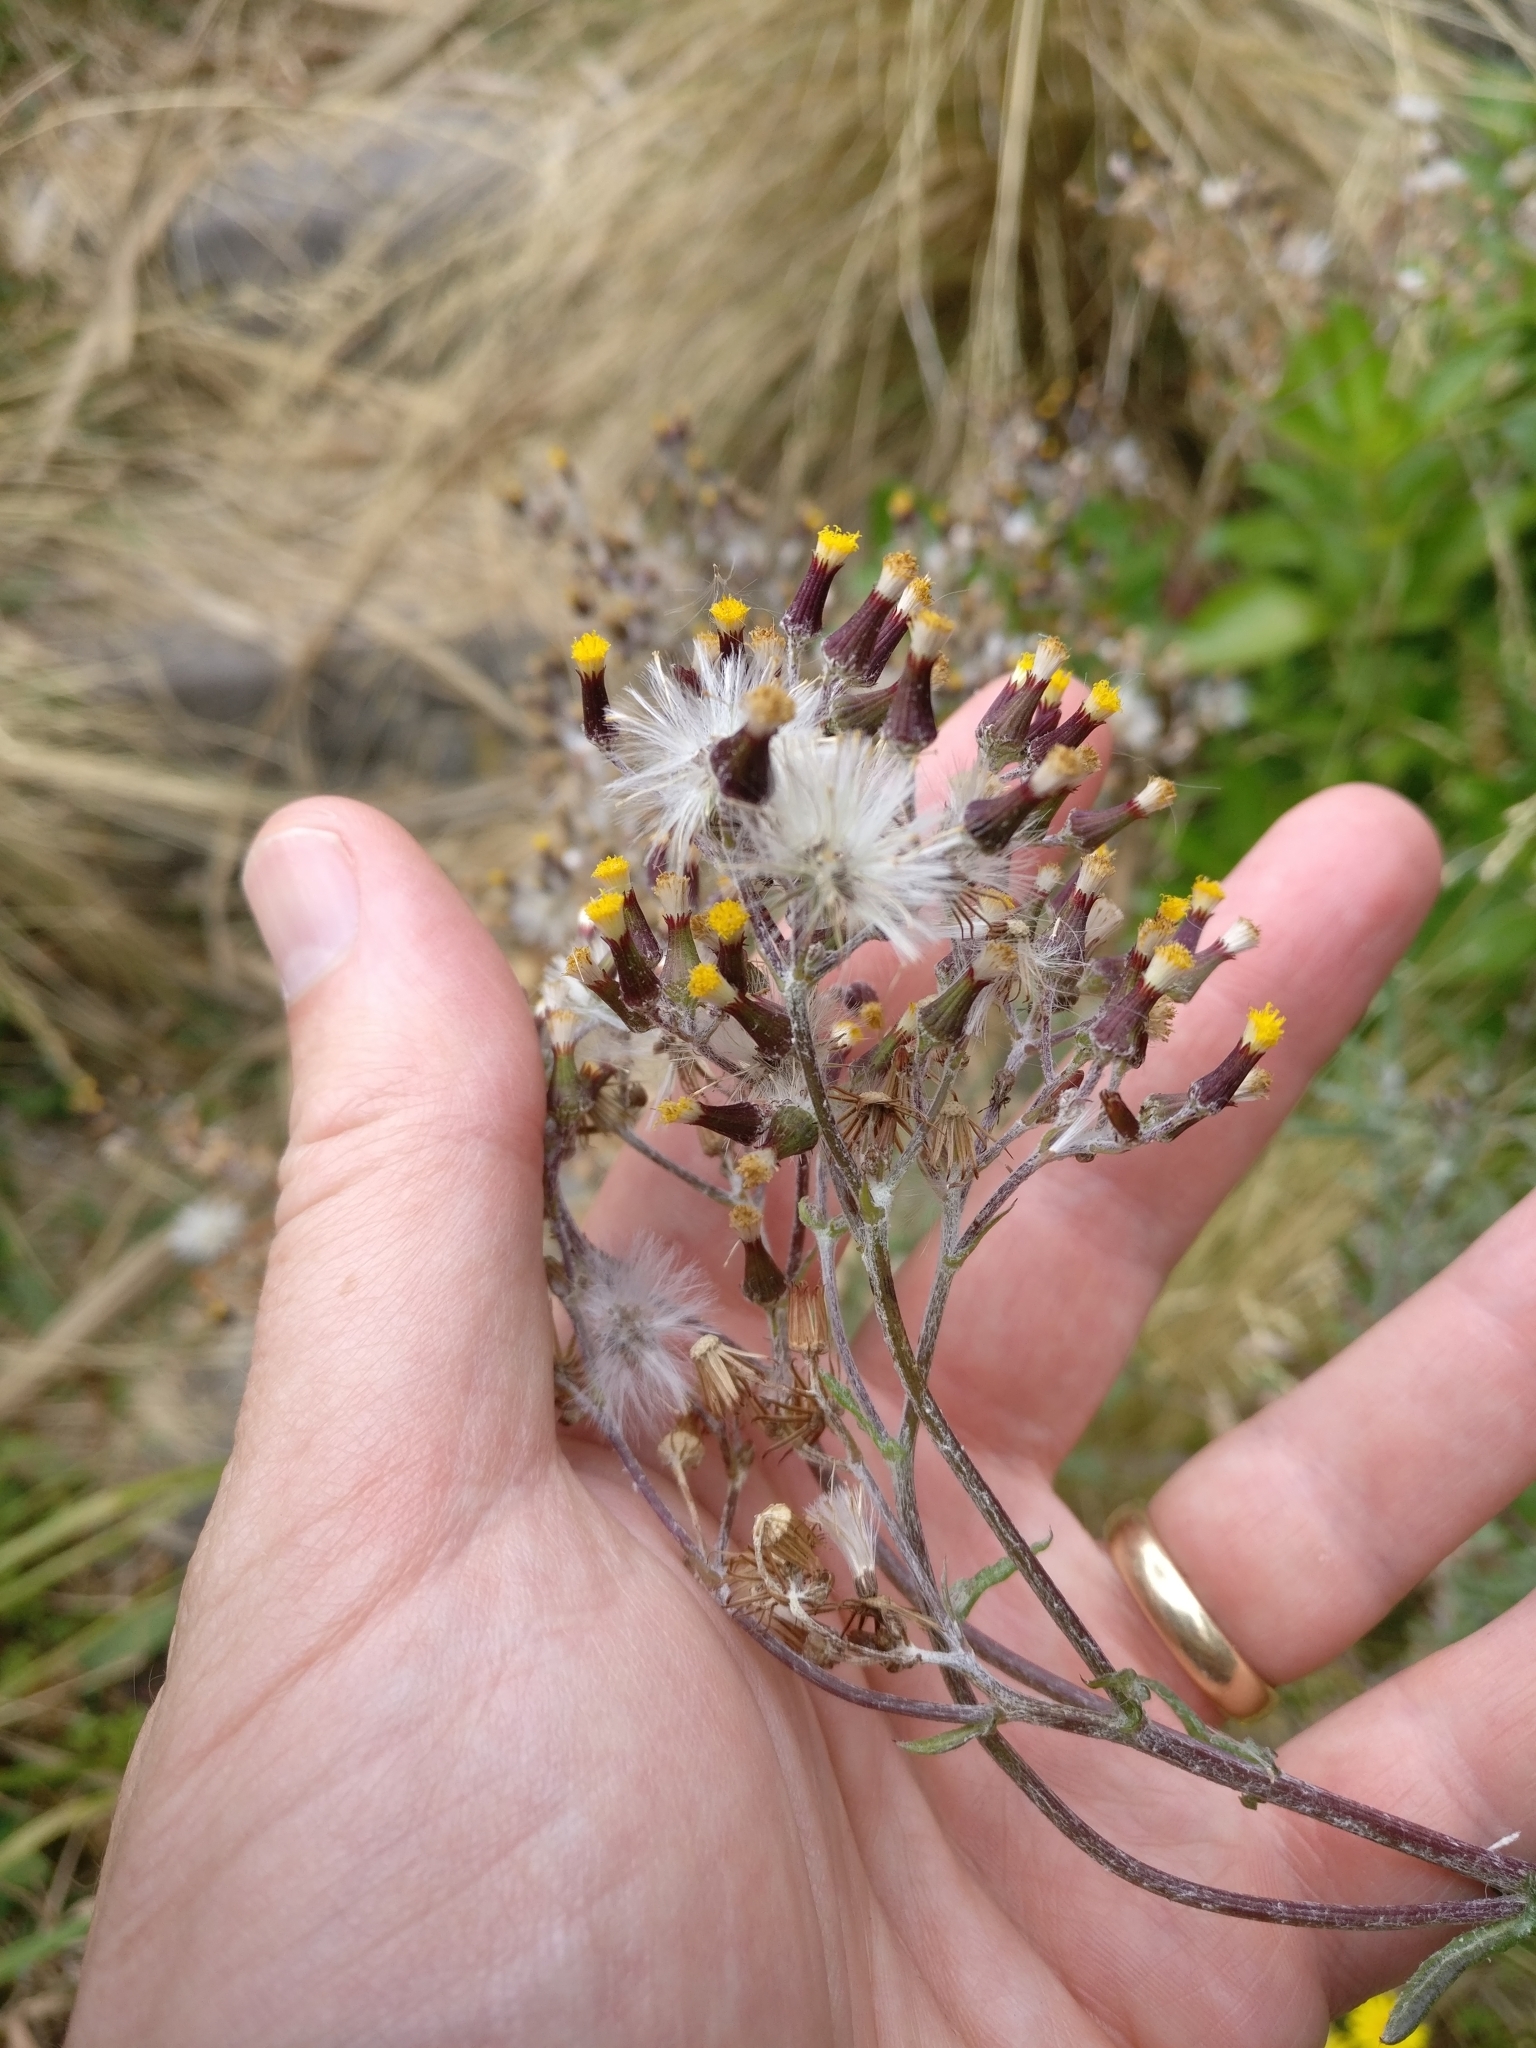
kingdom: Plantae
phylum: Tracheophyta
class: Magnoliopsida
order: Asterales
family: Asteraceae
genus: Senecio
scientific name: Senecio glomeratus
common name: Cutleaf burnweed
